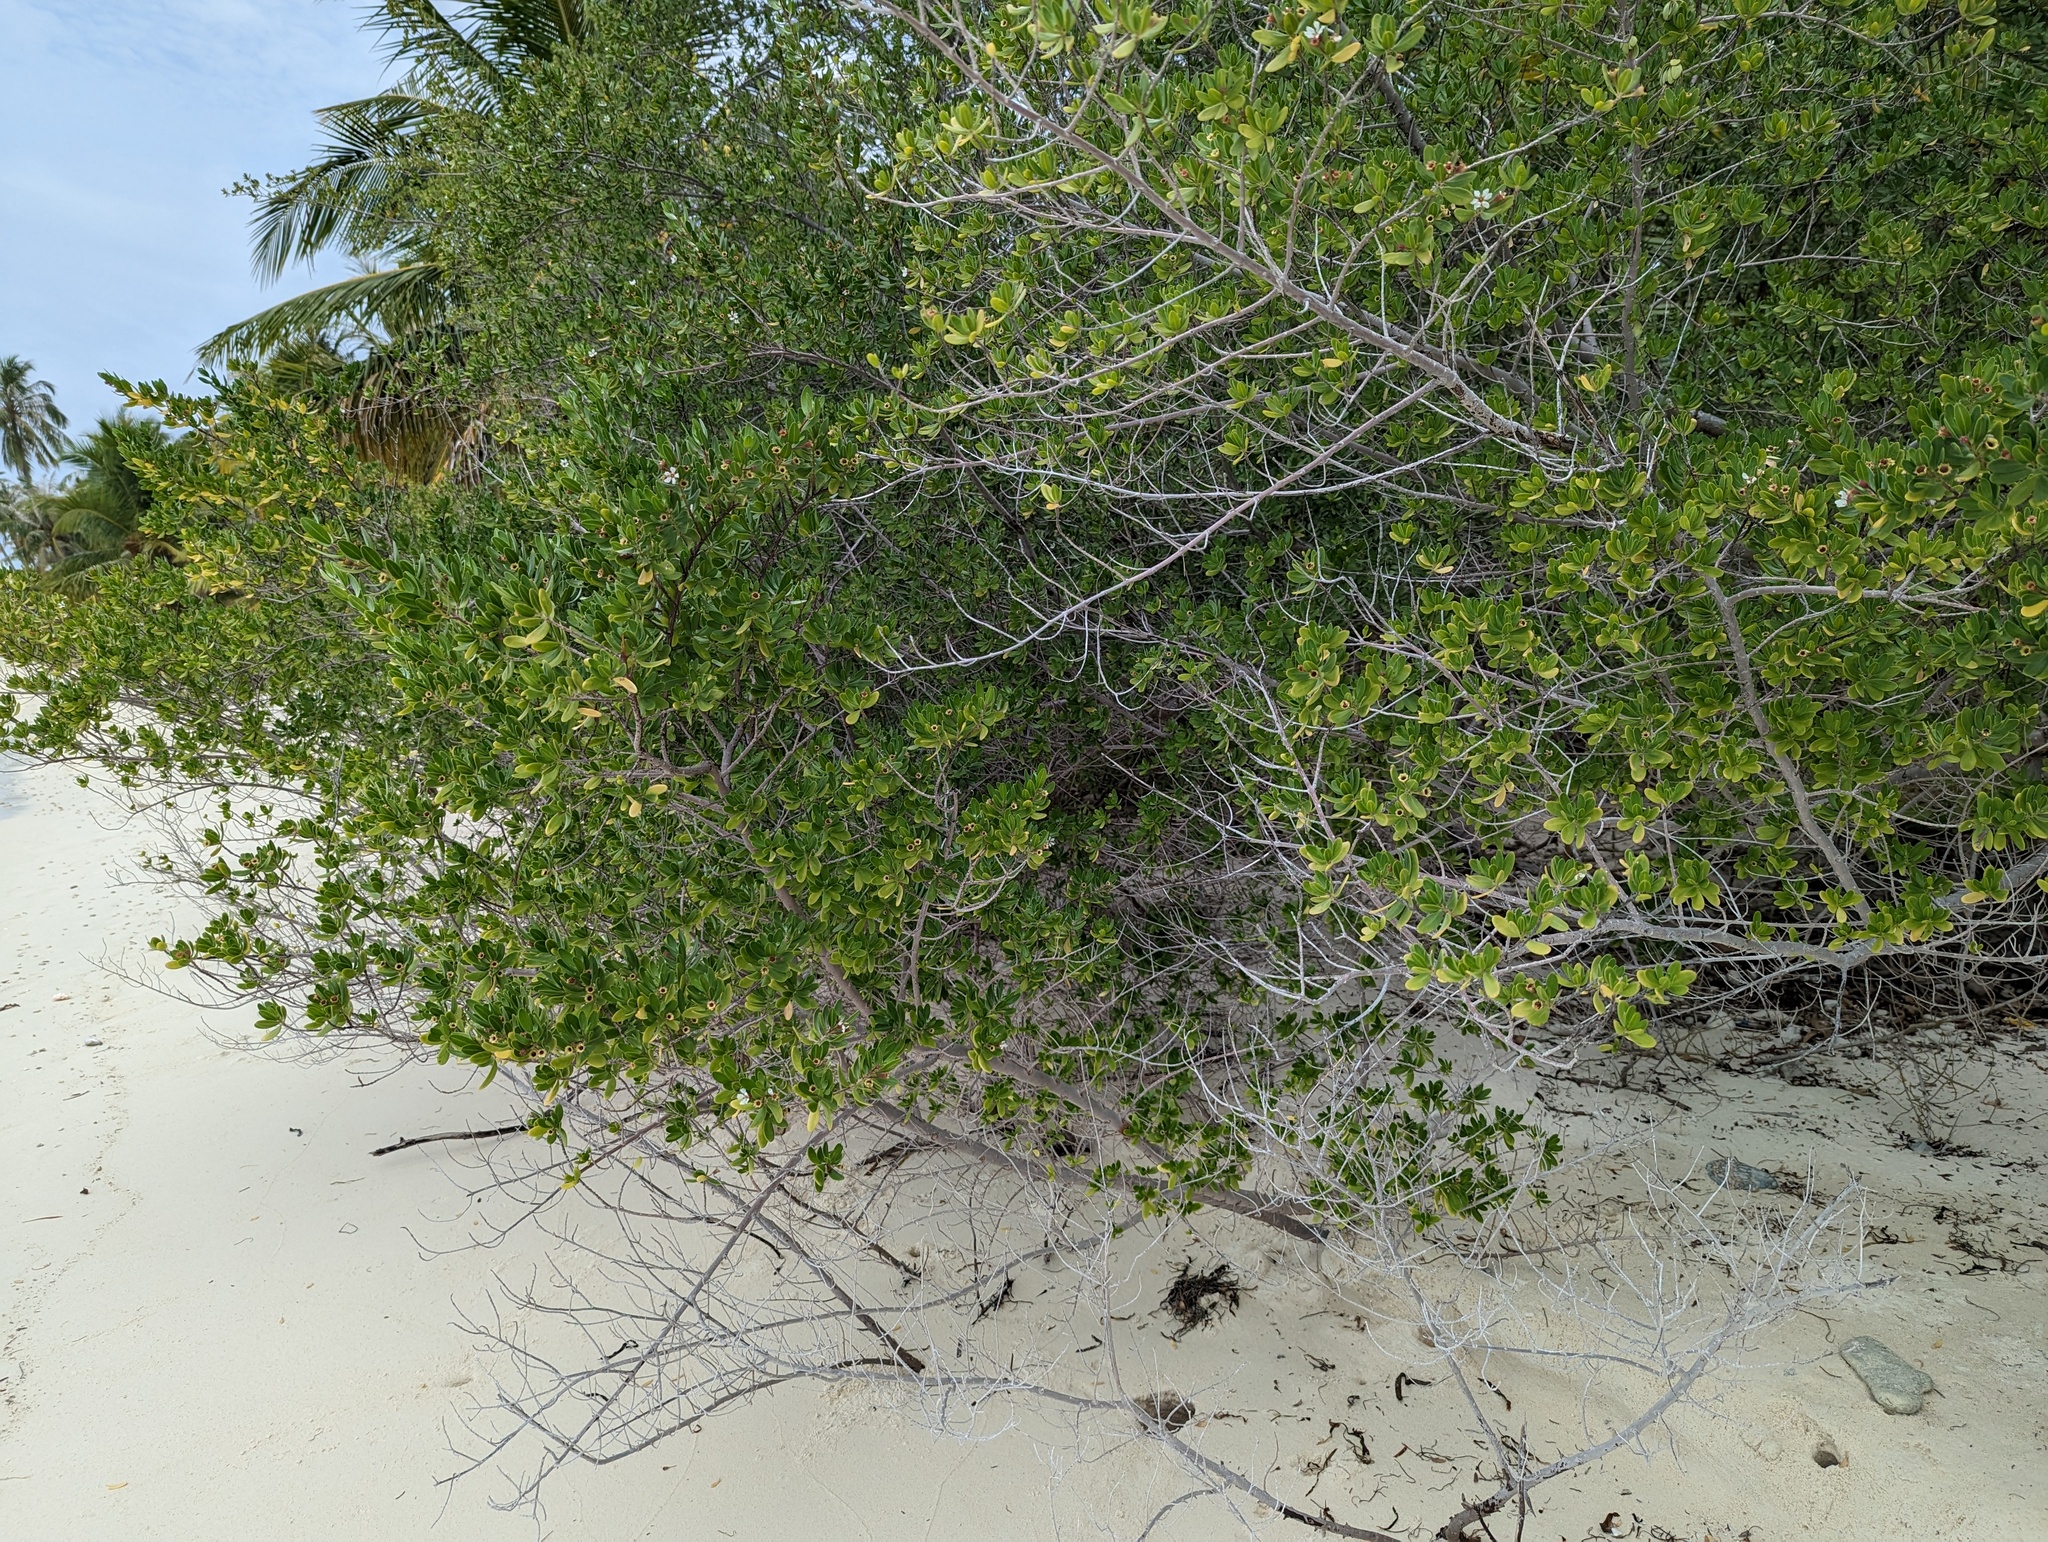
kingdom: Plantae
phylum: Tracheophyta
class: Magnoliopsida
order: Myrtales
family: Lythraceae
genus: Pemphis
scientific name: Pemphis acidula
